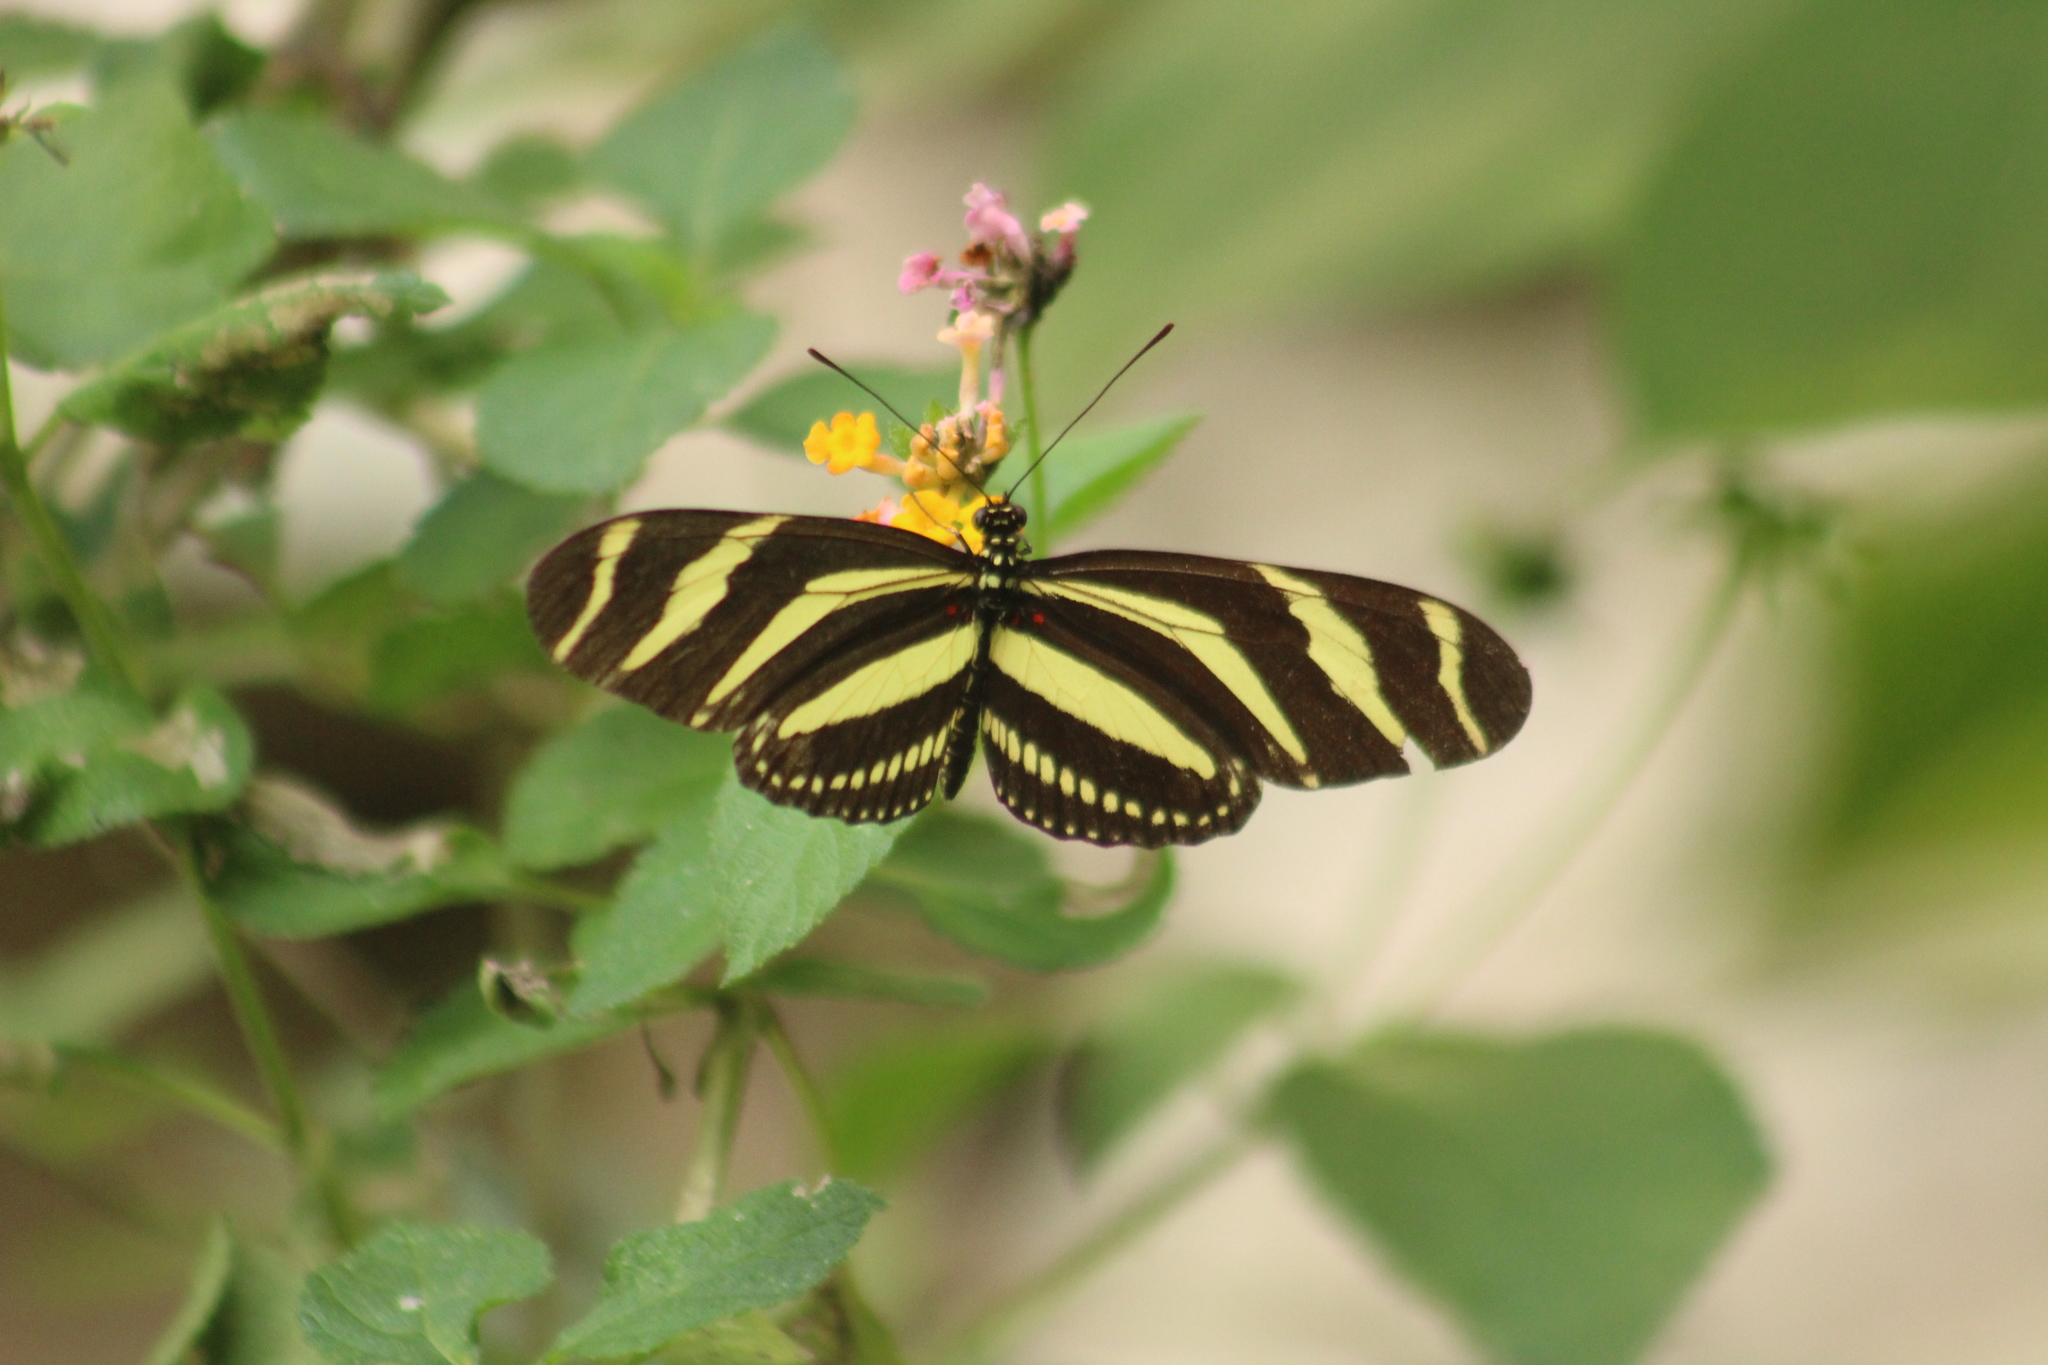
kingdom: Animalia
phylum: Arthropoda
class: Insecta
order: Lepidoptera
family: Nymphalidae
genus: Heliconius
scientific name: Heliconius charithonia
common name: Zebra long wing
